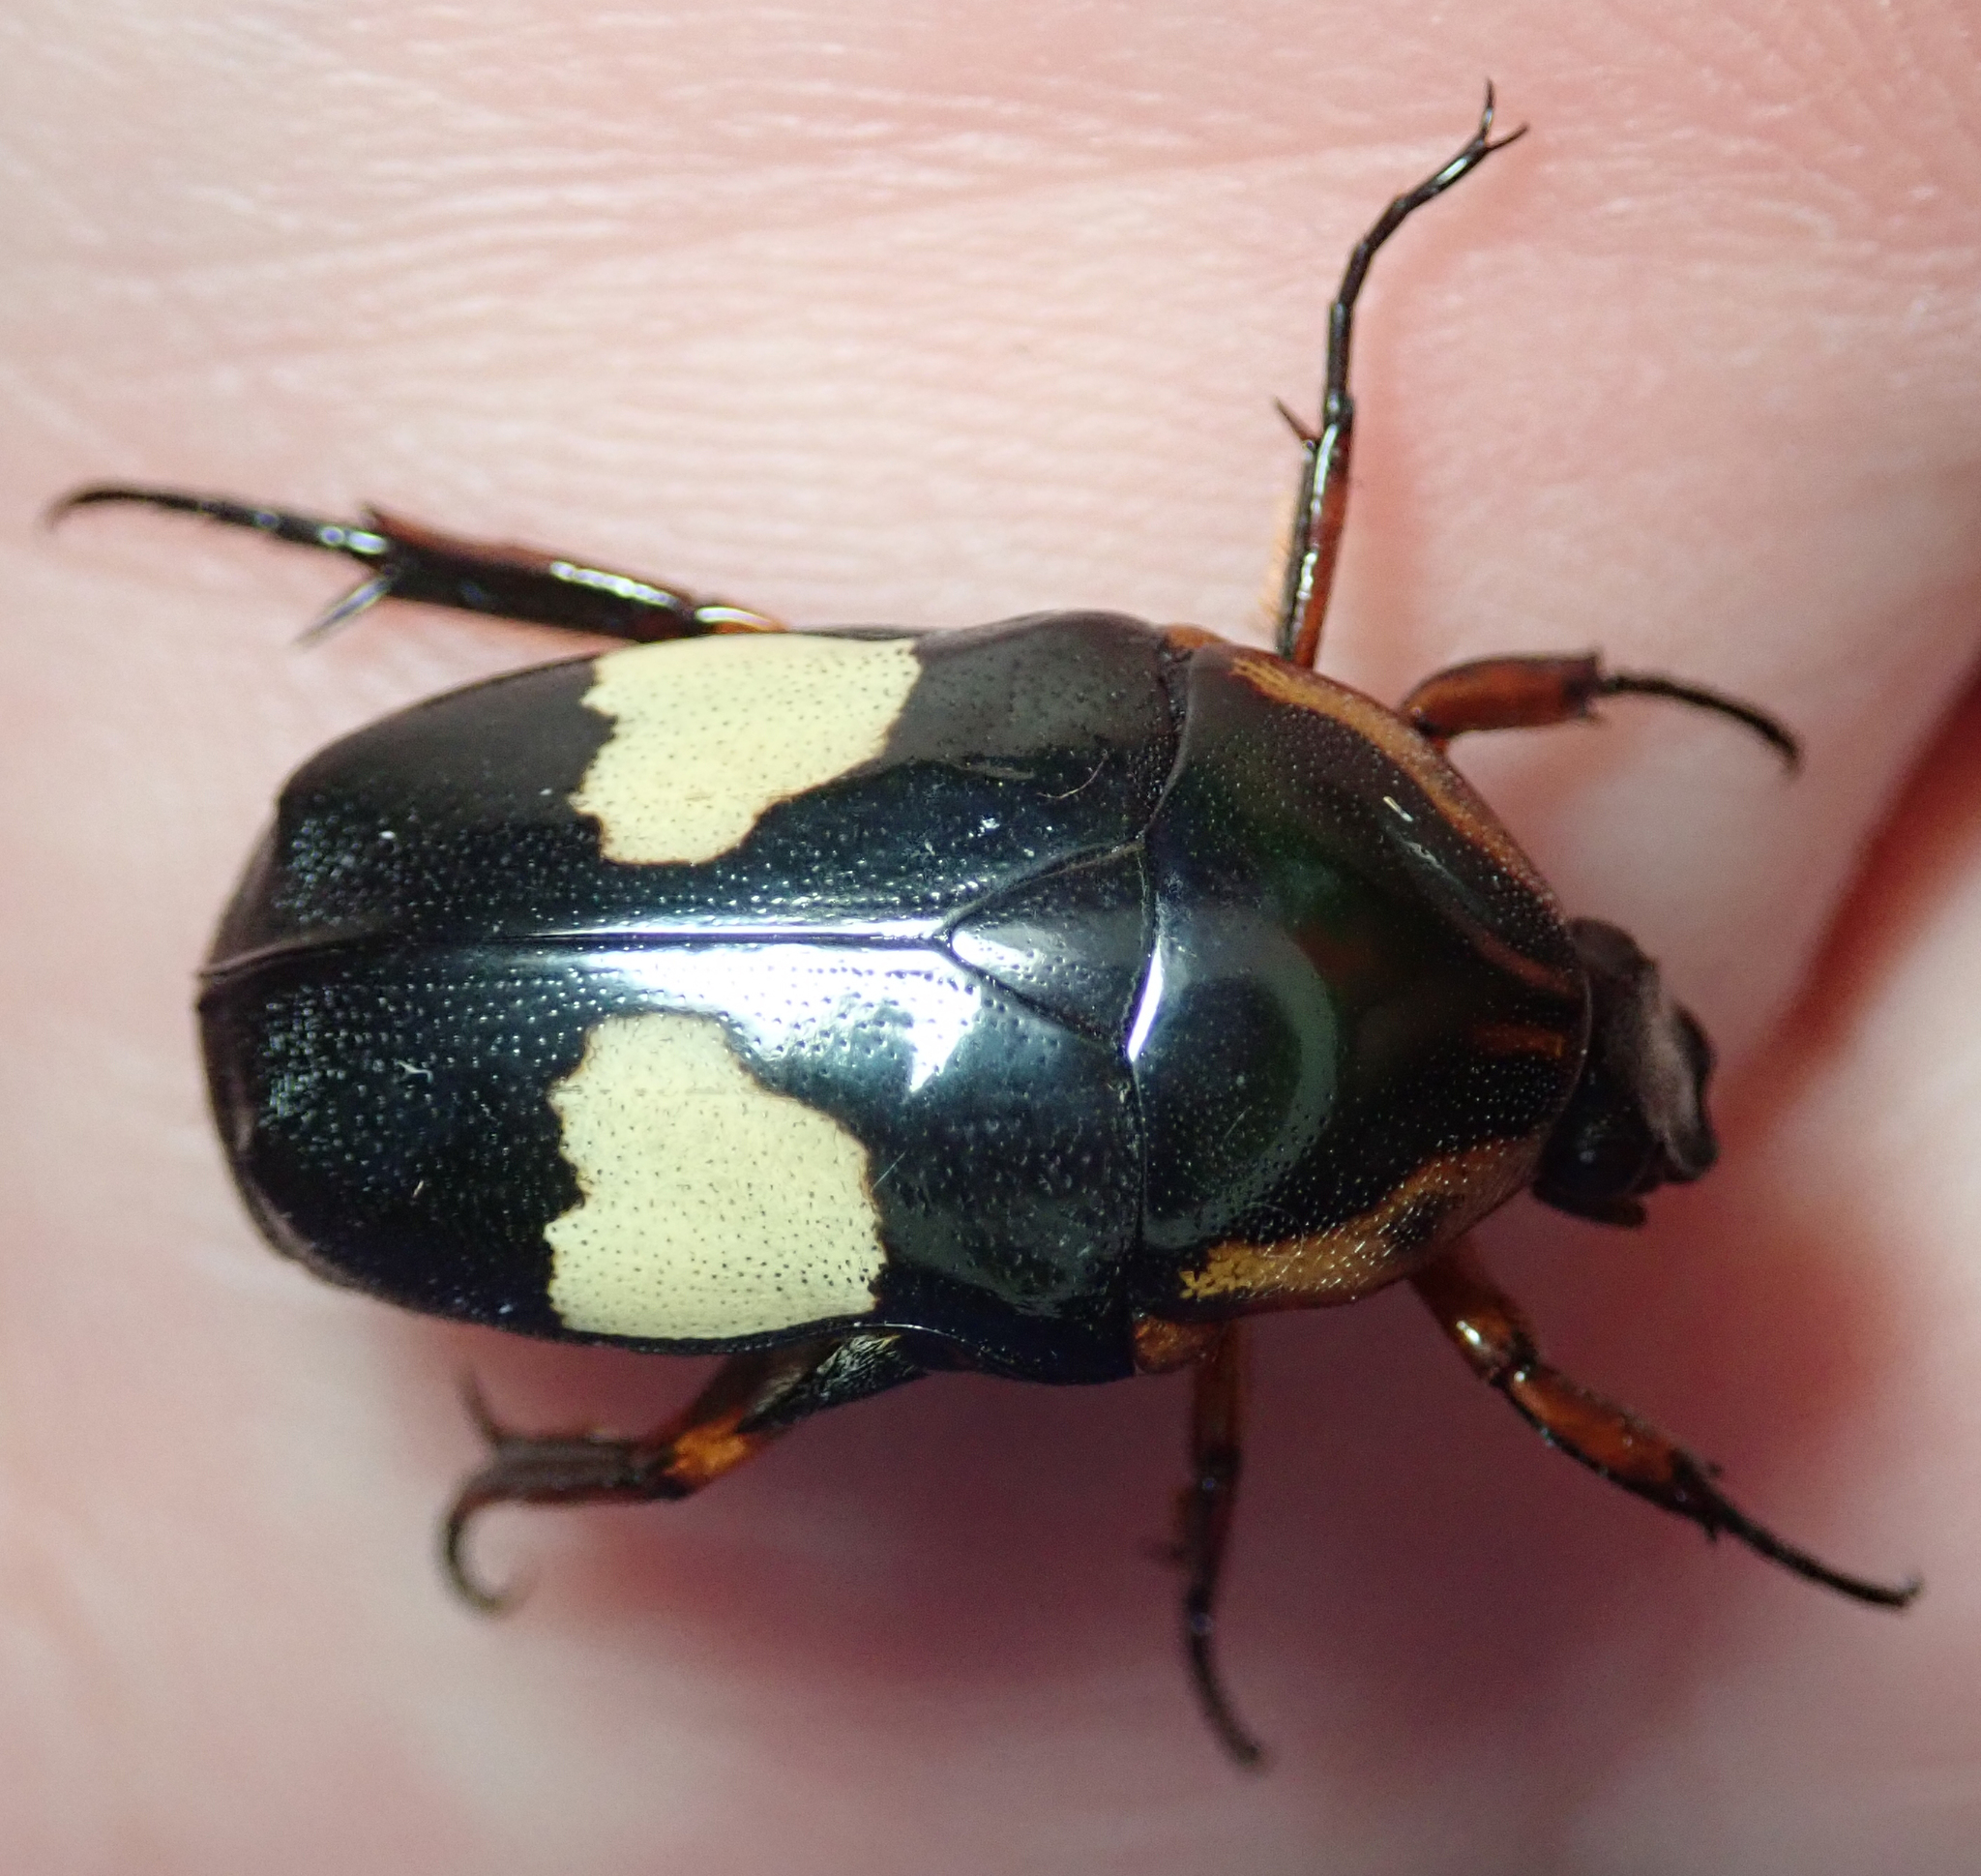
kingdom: Animalia
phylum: Arthropoda
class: Insecta
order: Coleoptera
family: Scarabaeidae
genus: Pedinorrhina
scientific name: Pedinorrhina
